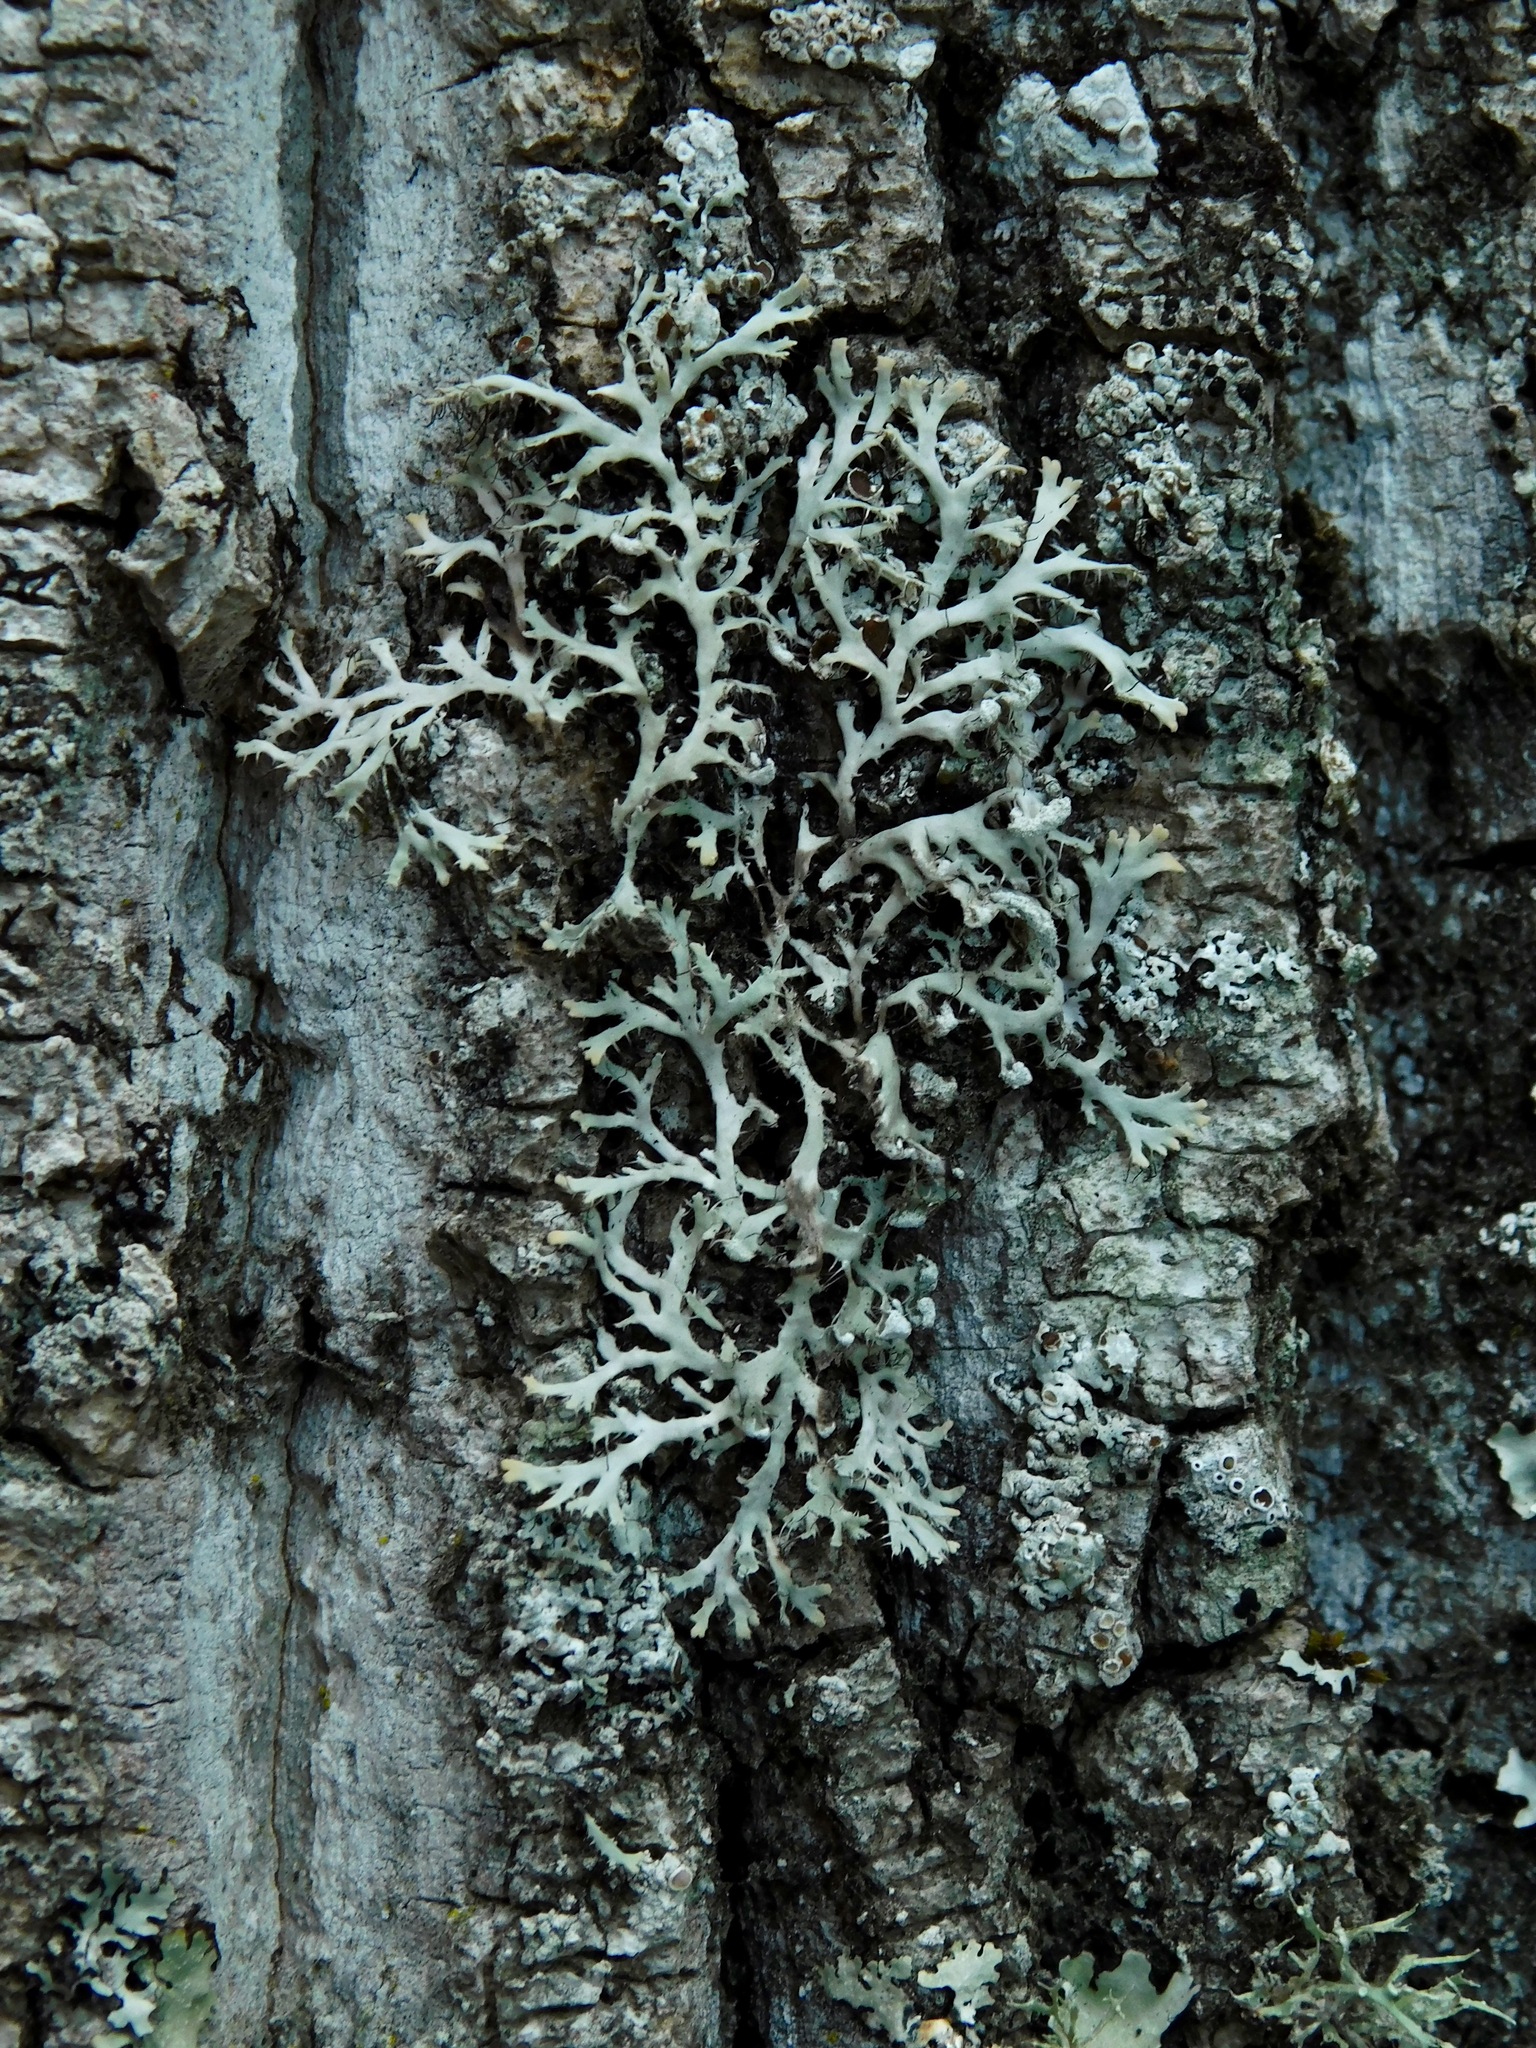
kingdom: Fungi
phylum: Ascomycota
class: Lecanoromycetes
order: Caliciales
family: Physciaceae
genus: Leucodermia
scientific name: Leucodermia appalachensis
